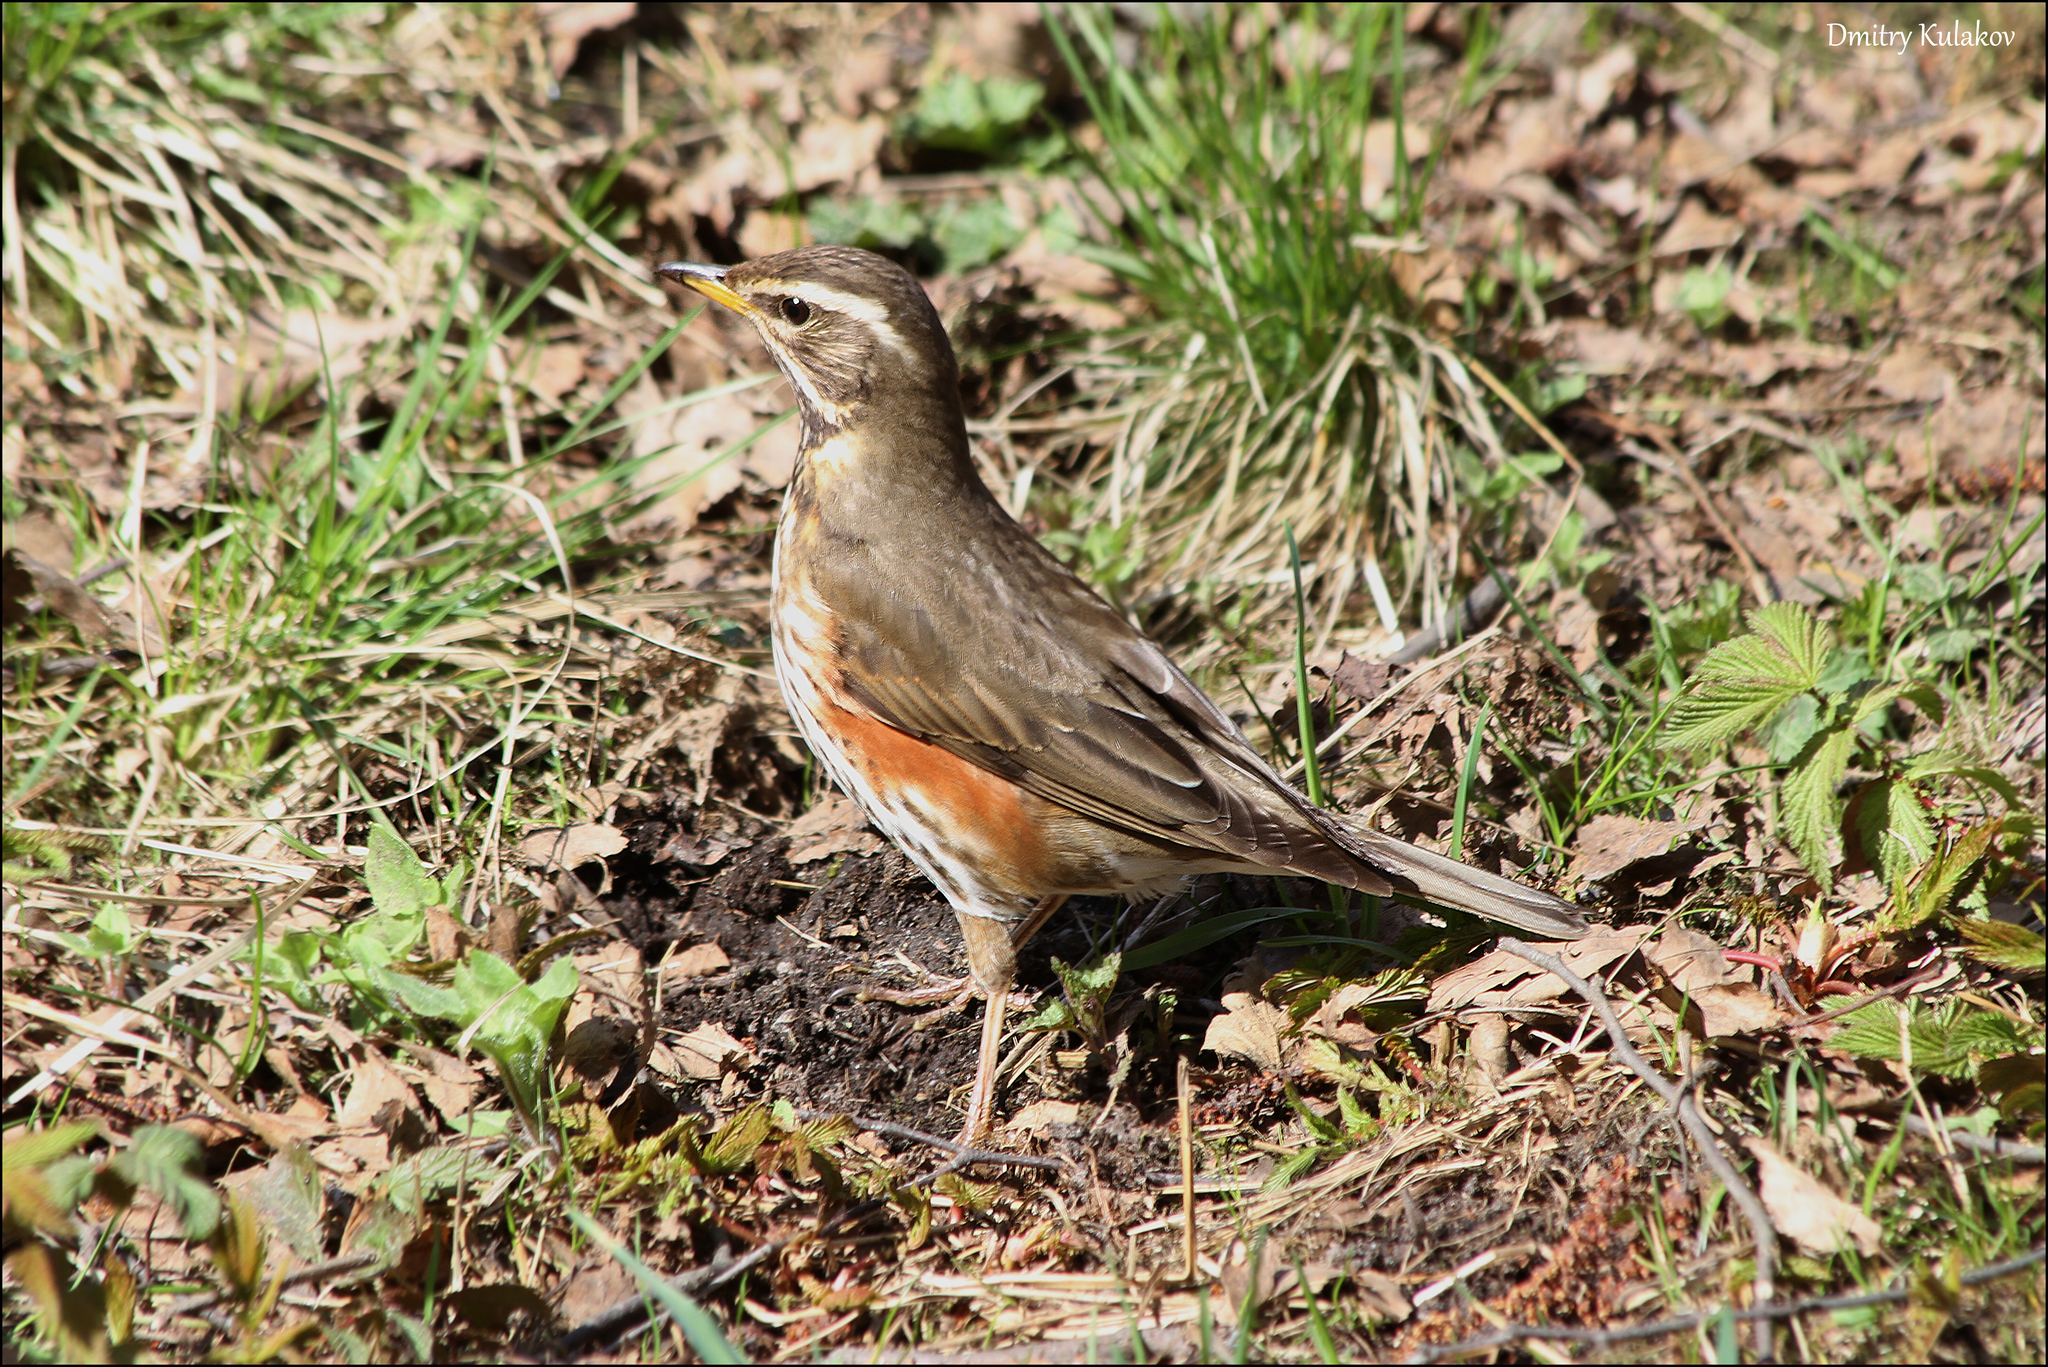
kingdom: Animalia
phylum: Chordata
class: Aves
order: Passeriformes
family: Turdidae
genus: Turdus
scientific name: Turdus iliacus
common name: Redwing
